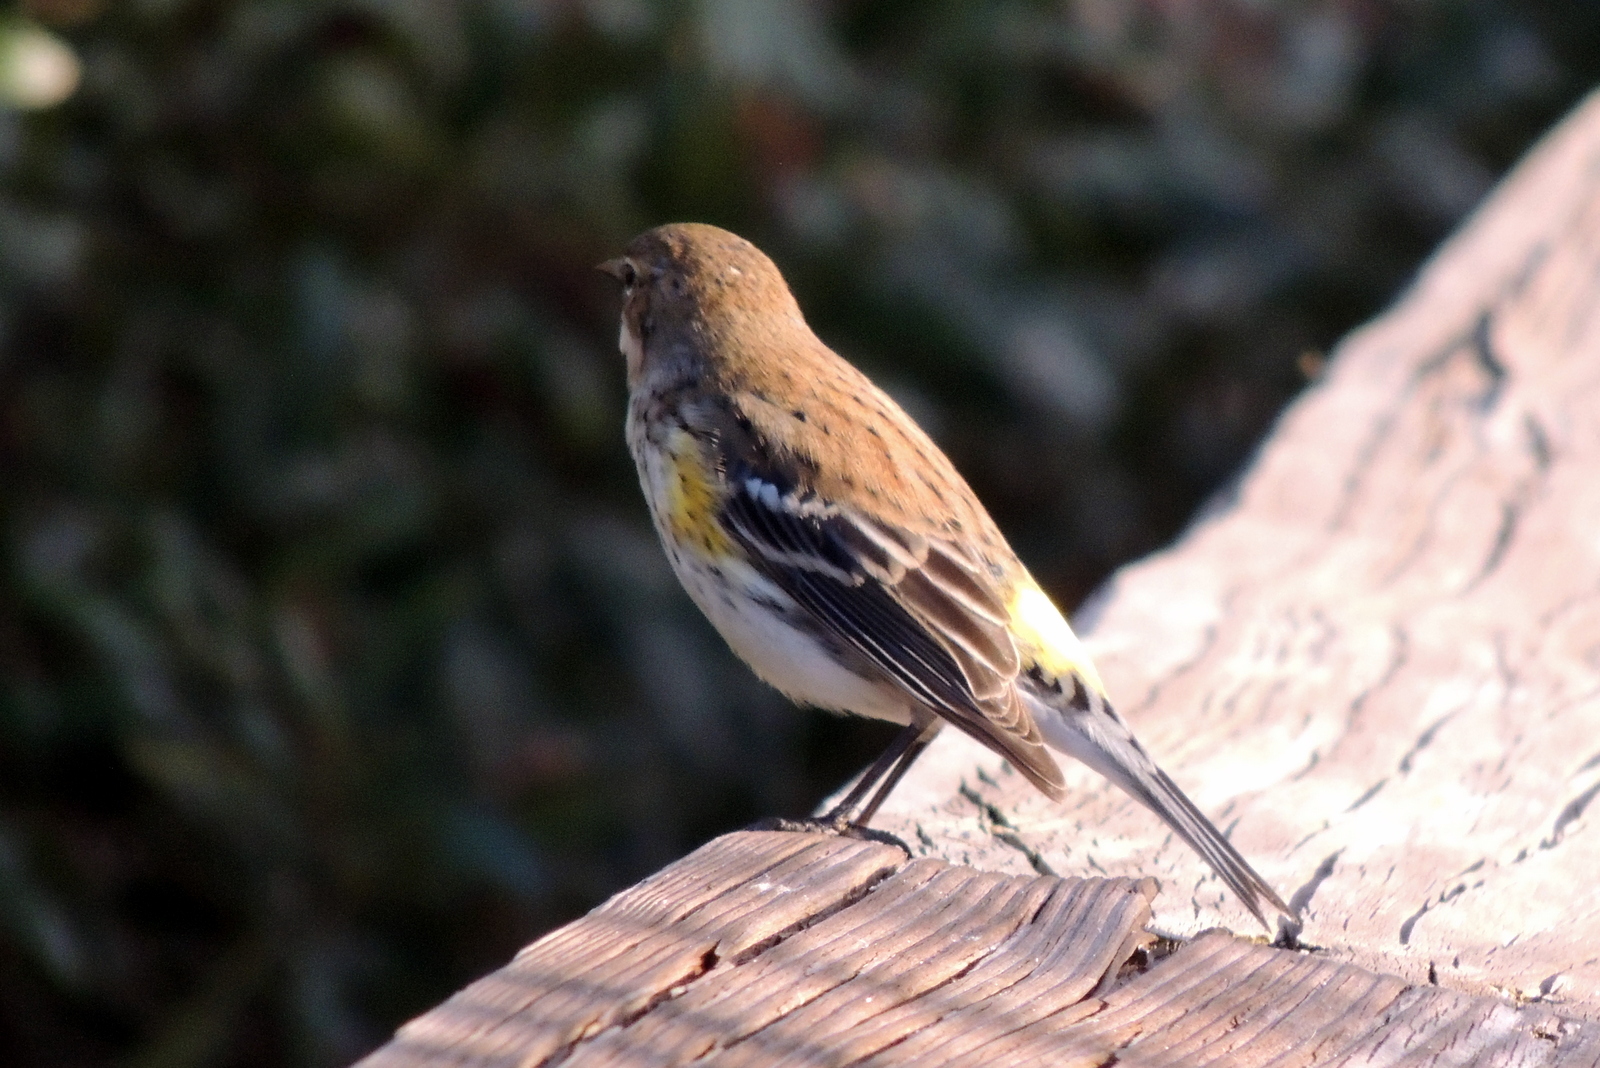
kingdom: Animalia
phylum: Chordata
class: Aves
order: Passeriformes
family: Parulidae
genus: Setophaga
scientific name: Setophaga coronata
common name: Myrtle warbler
